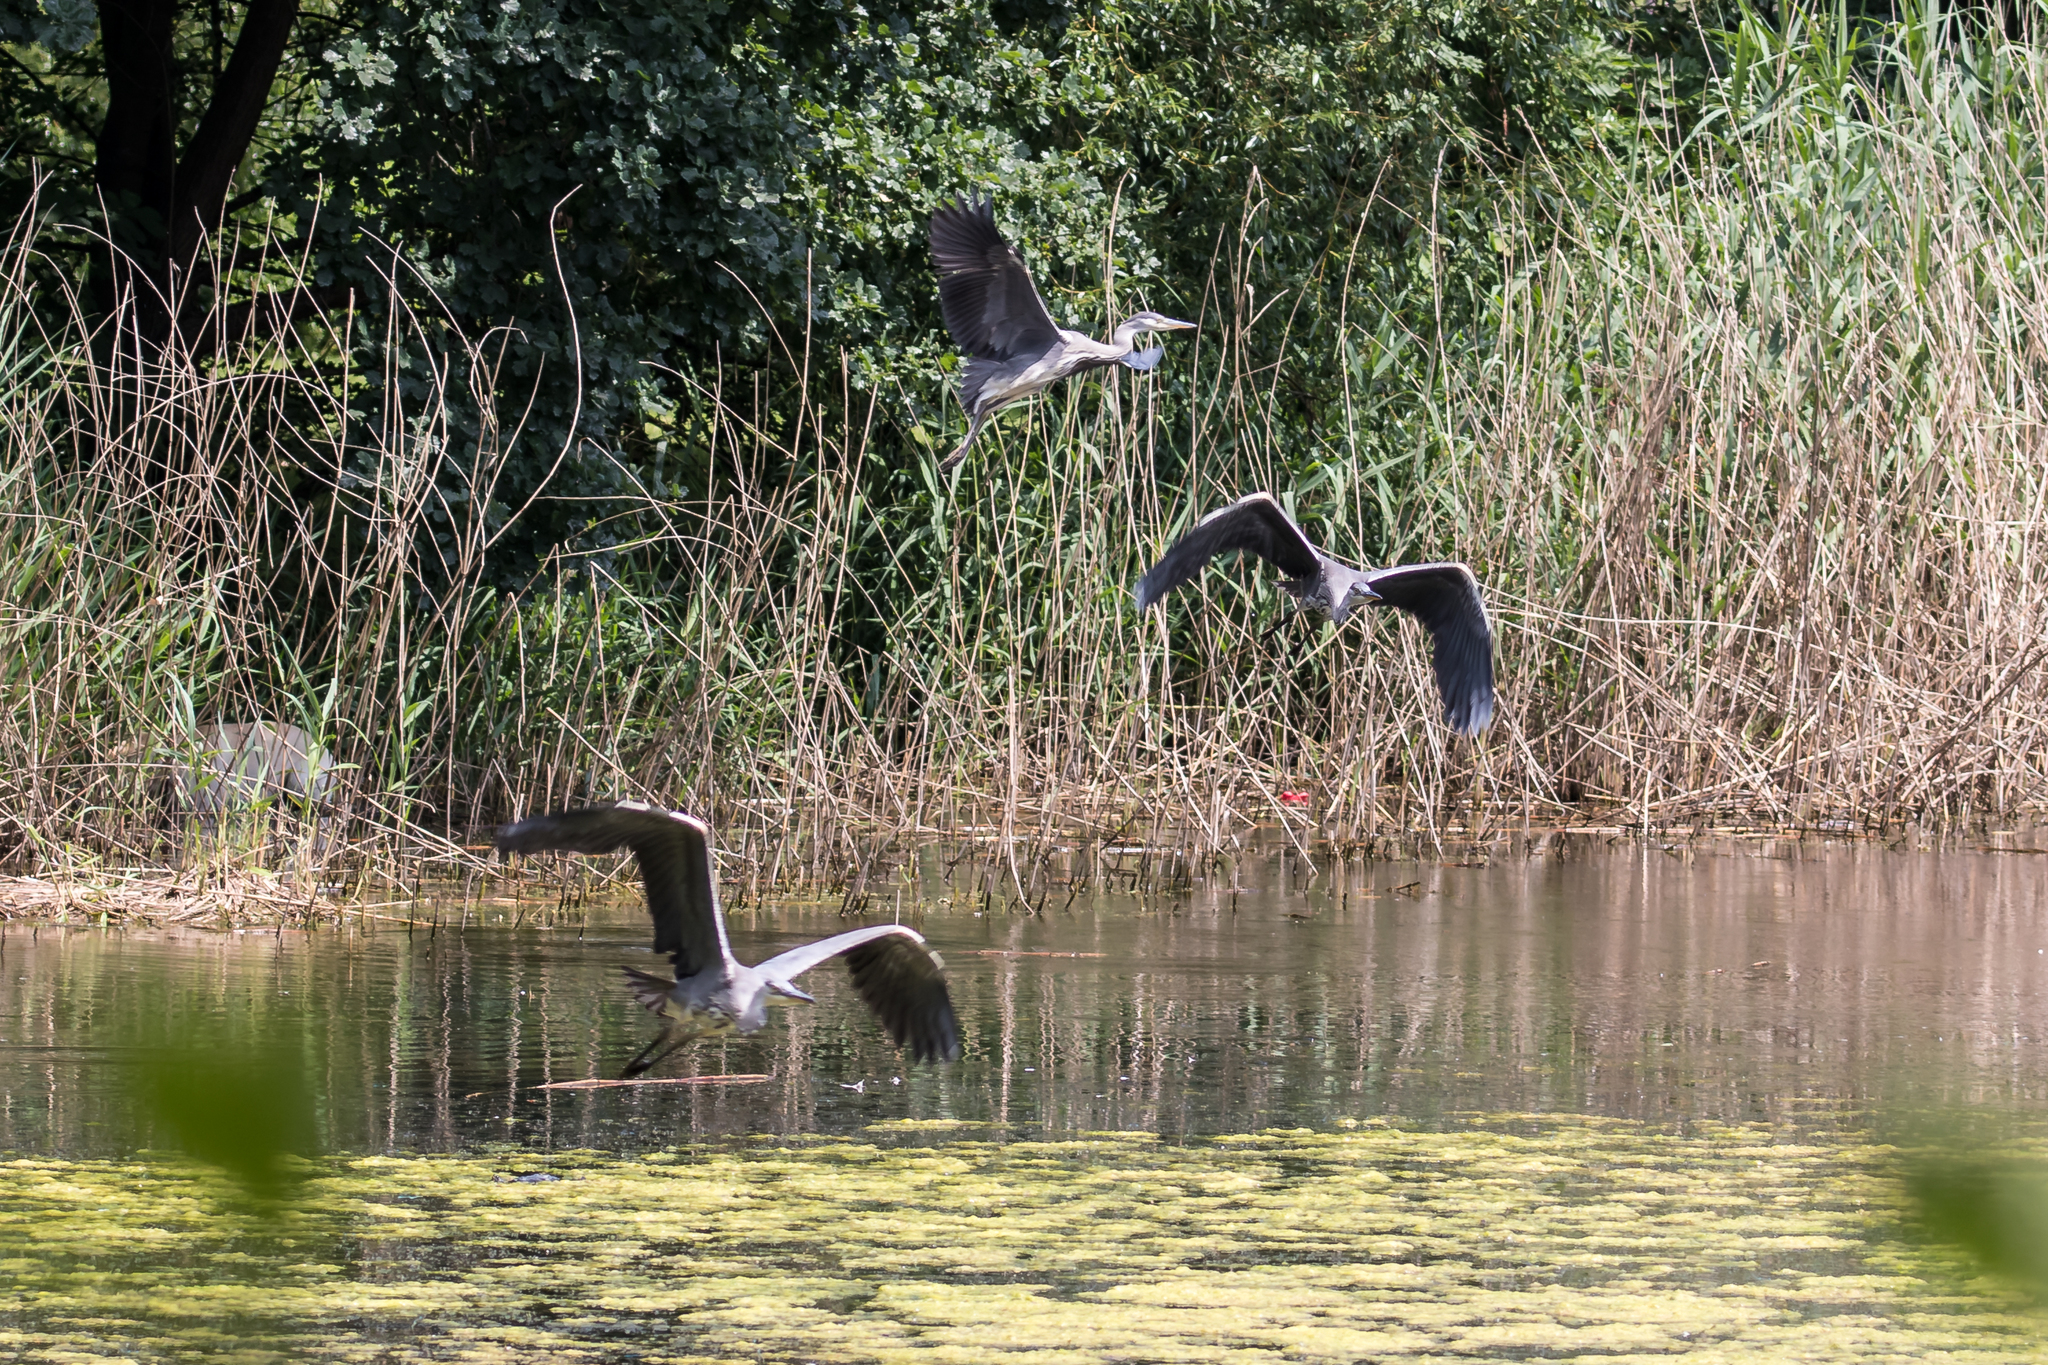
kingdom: Animalia
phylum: Chordata
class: Aves
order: Pelecaniformes
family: Ardeidae
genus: Ardea
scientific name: Ardea cinerea
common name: Grey heron
